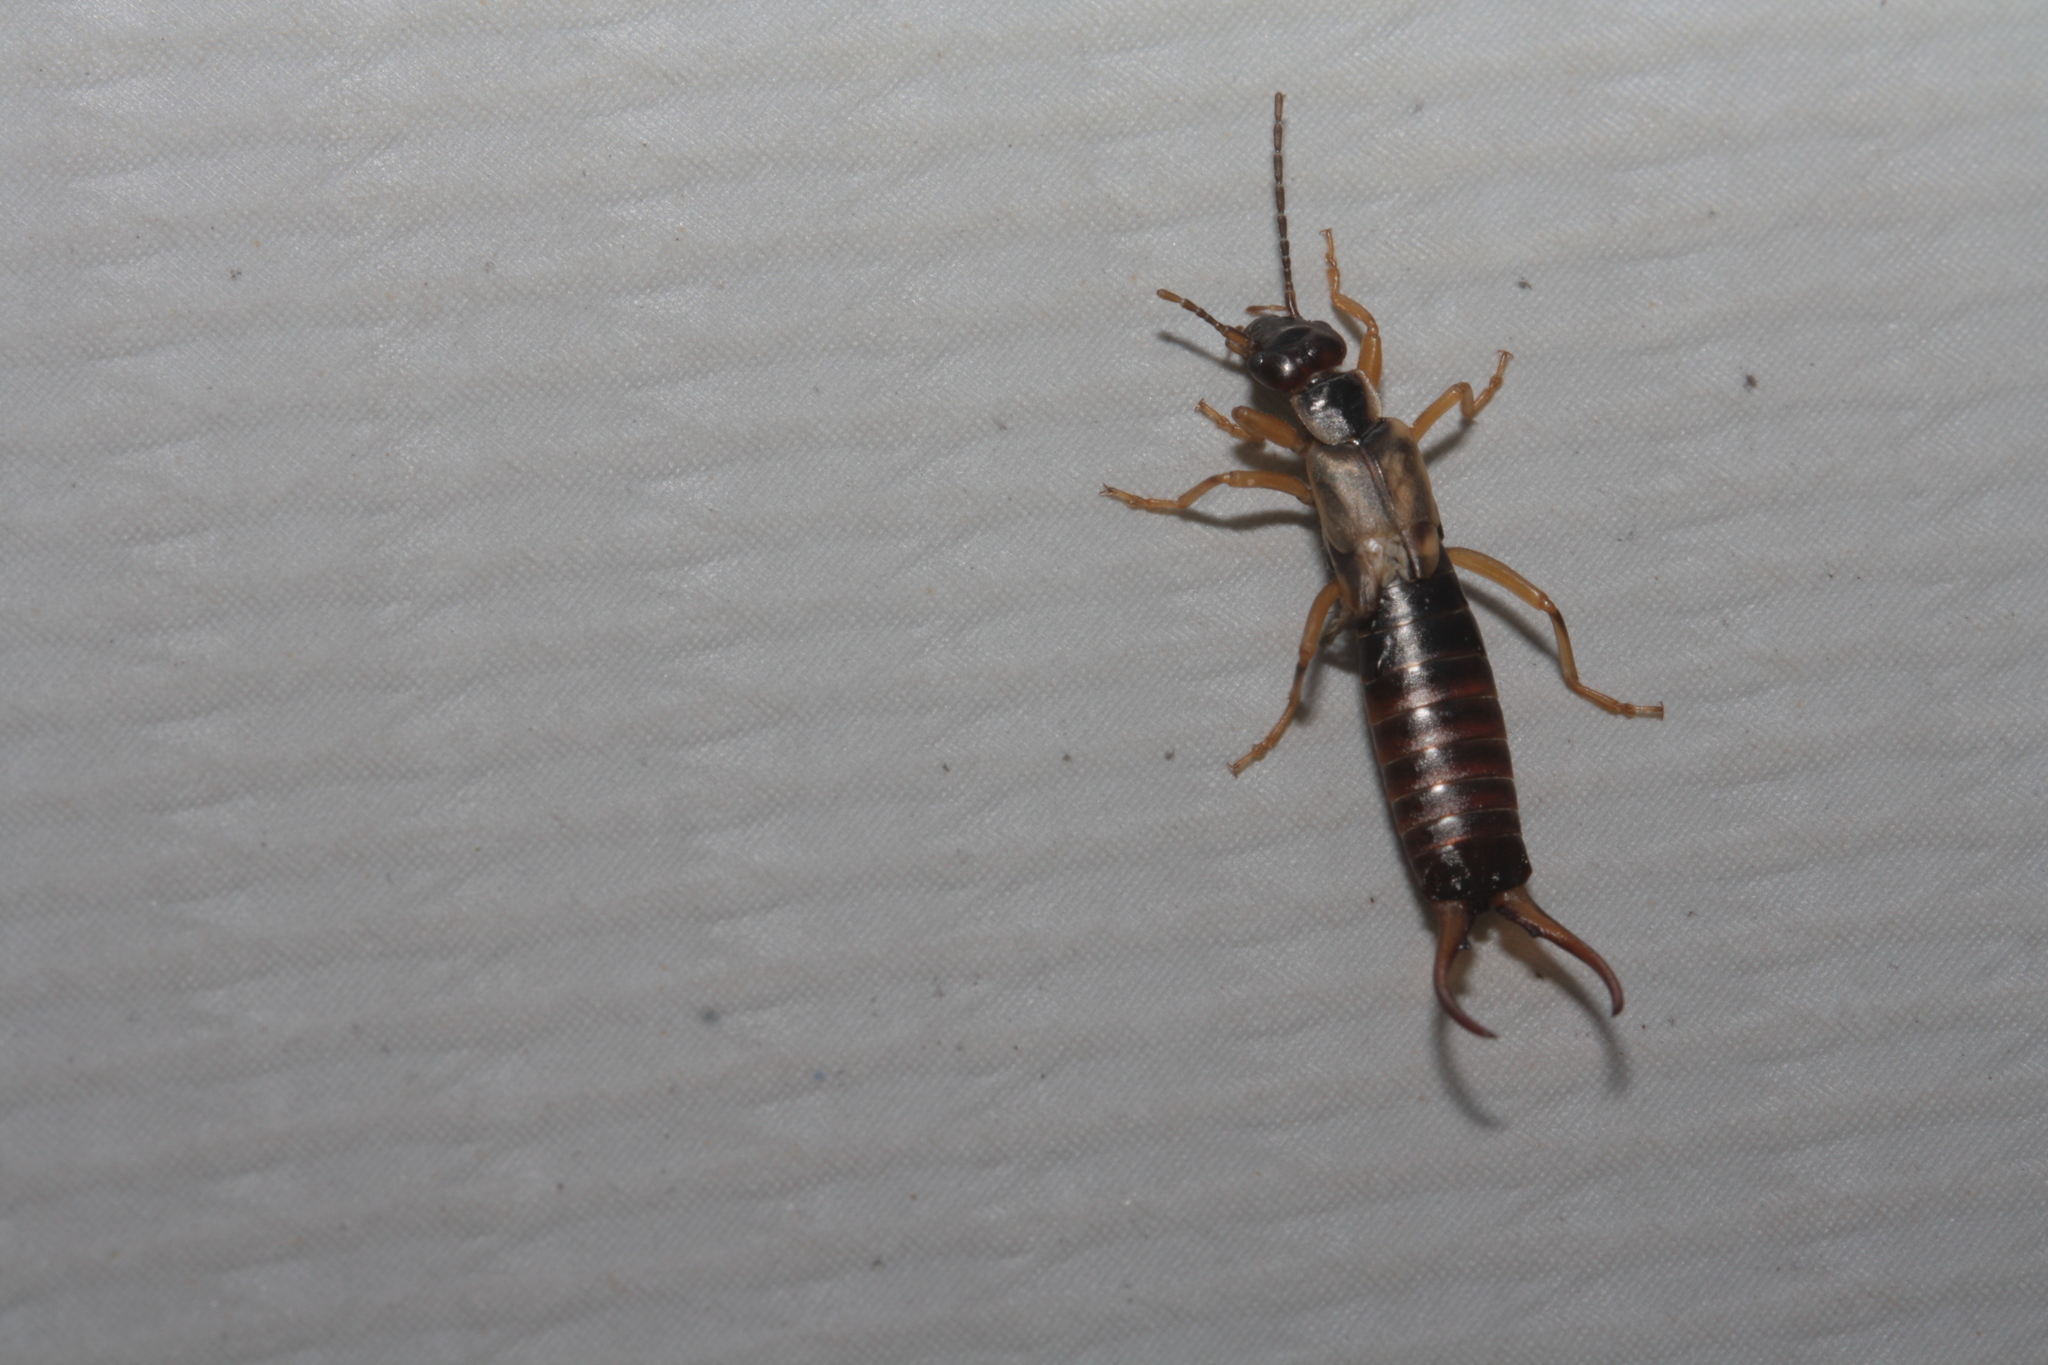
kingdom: Animalia
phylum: Arthropoda
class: Insecta
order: Dermaptera
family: Forficulidae
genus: Forficula
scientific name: Forficula
